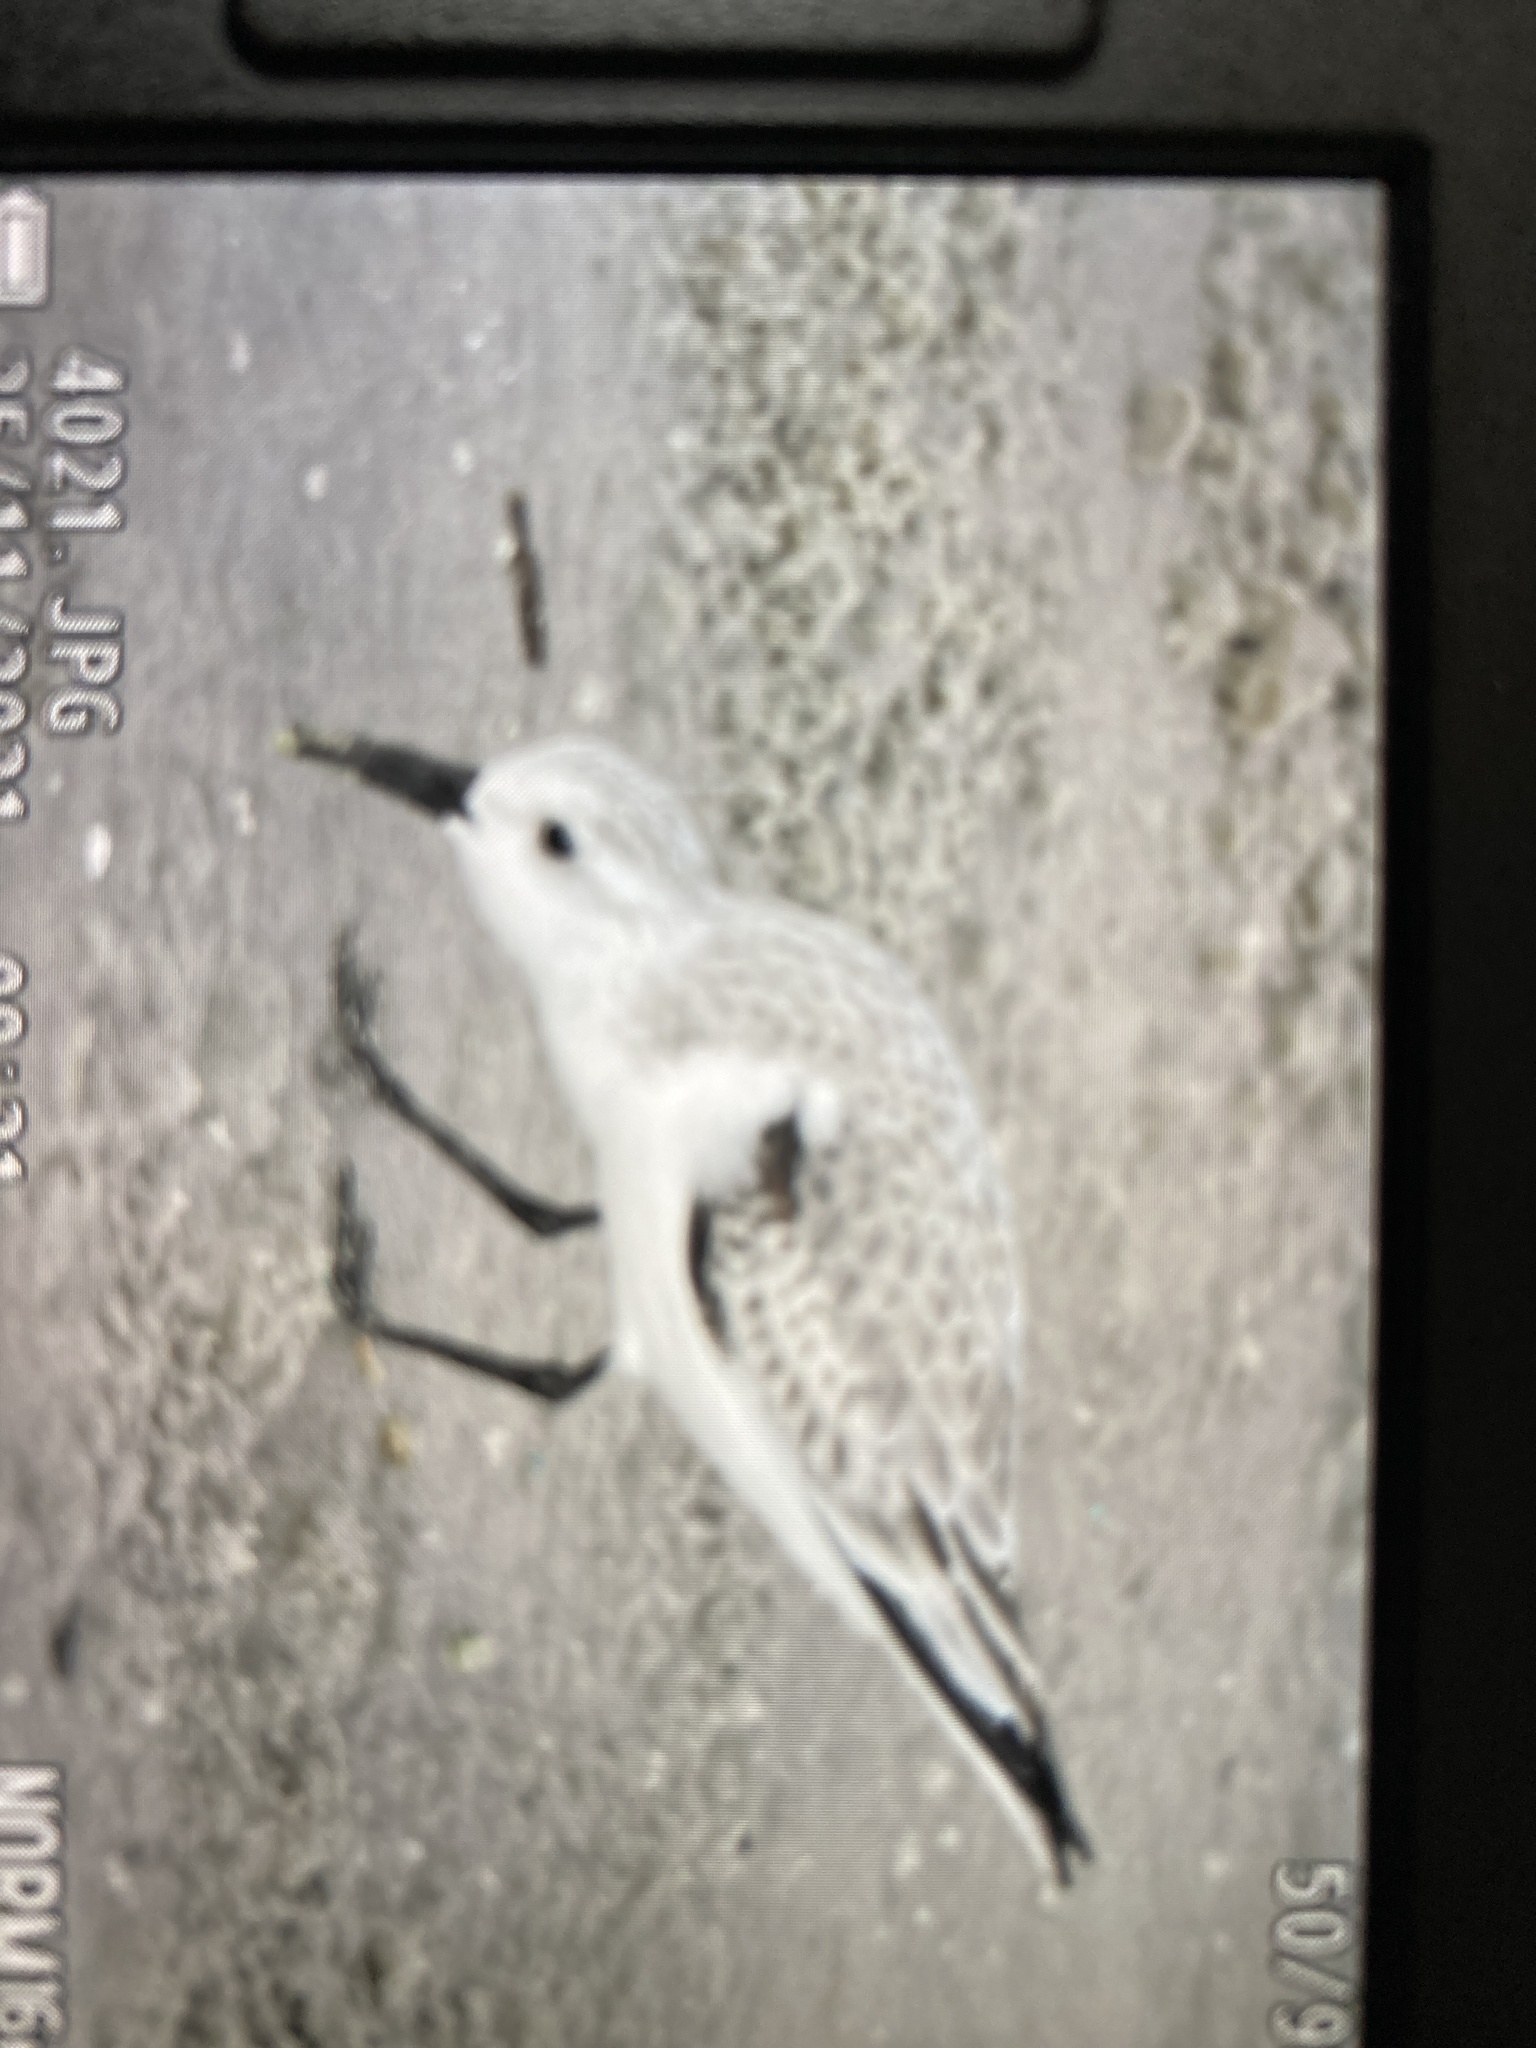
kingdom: Animalia
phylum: Chordata
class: Aves
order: Charadriiformes
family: Scolopacidae
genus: Calidris
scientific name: Calidris alba
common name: Sanderling
